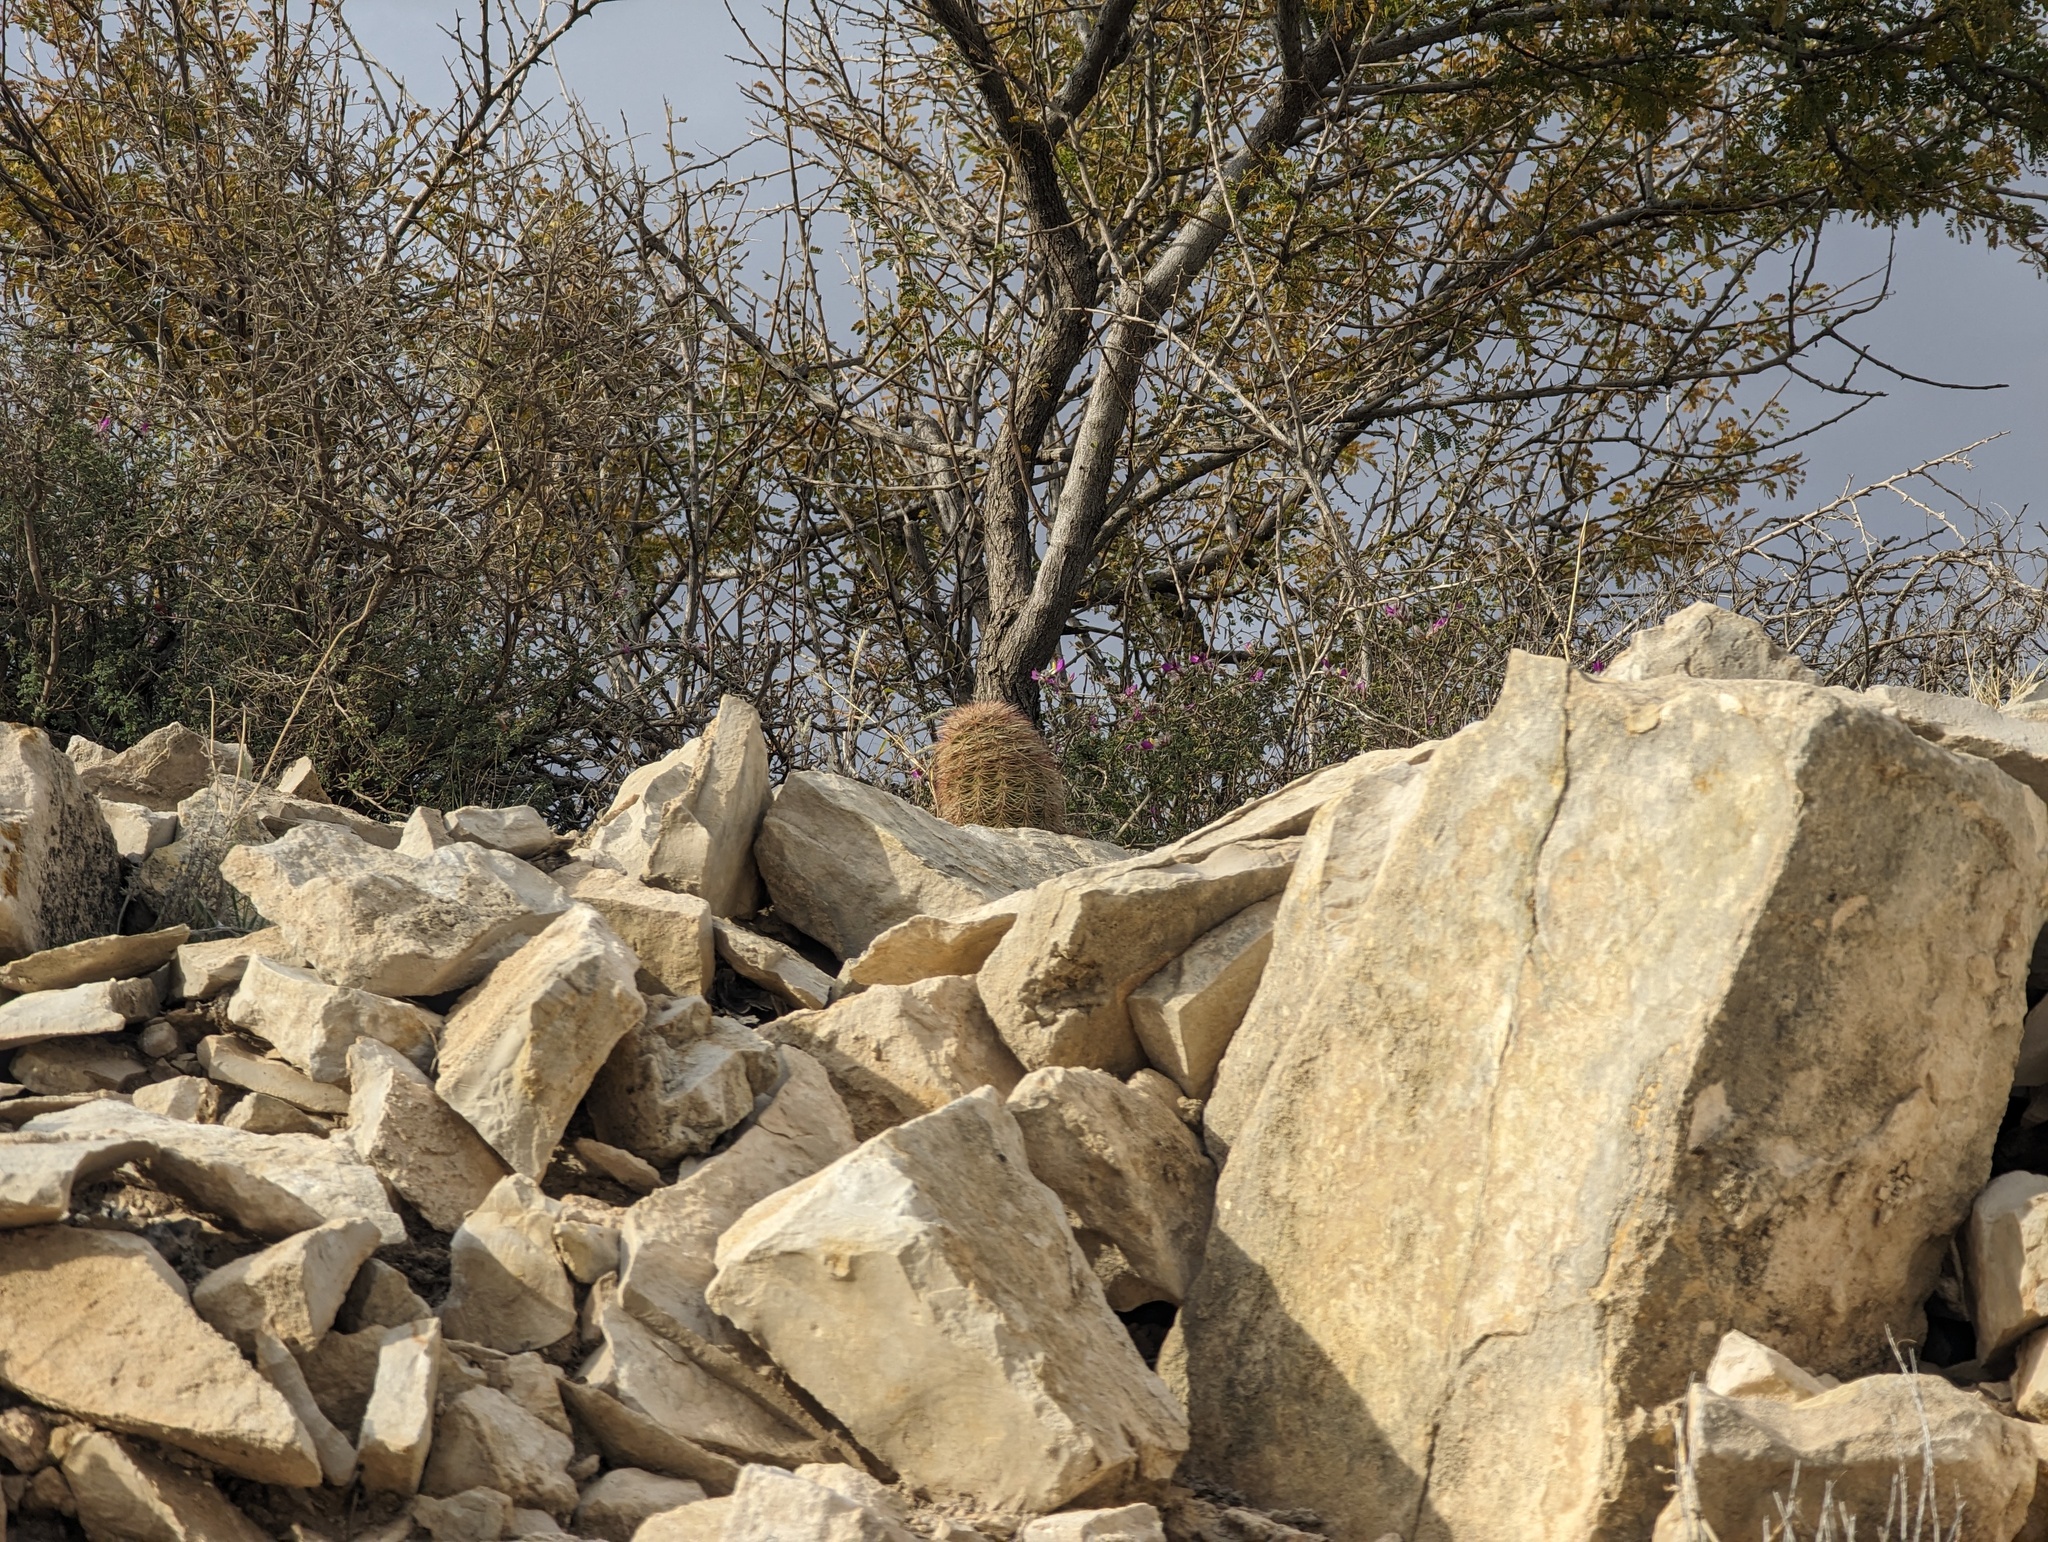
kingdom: Plantae
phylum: Tracheophyta
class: Magnoliopsida
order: Caryophyllales
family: Cactaceae
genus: Echinocereus
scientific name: Echinocereus dasyacanthus
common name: Spiny hedgehog cactus
